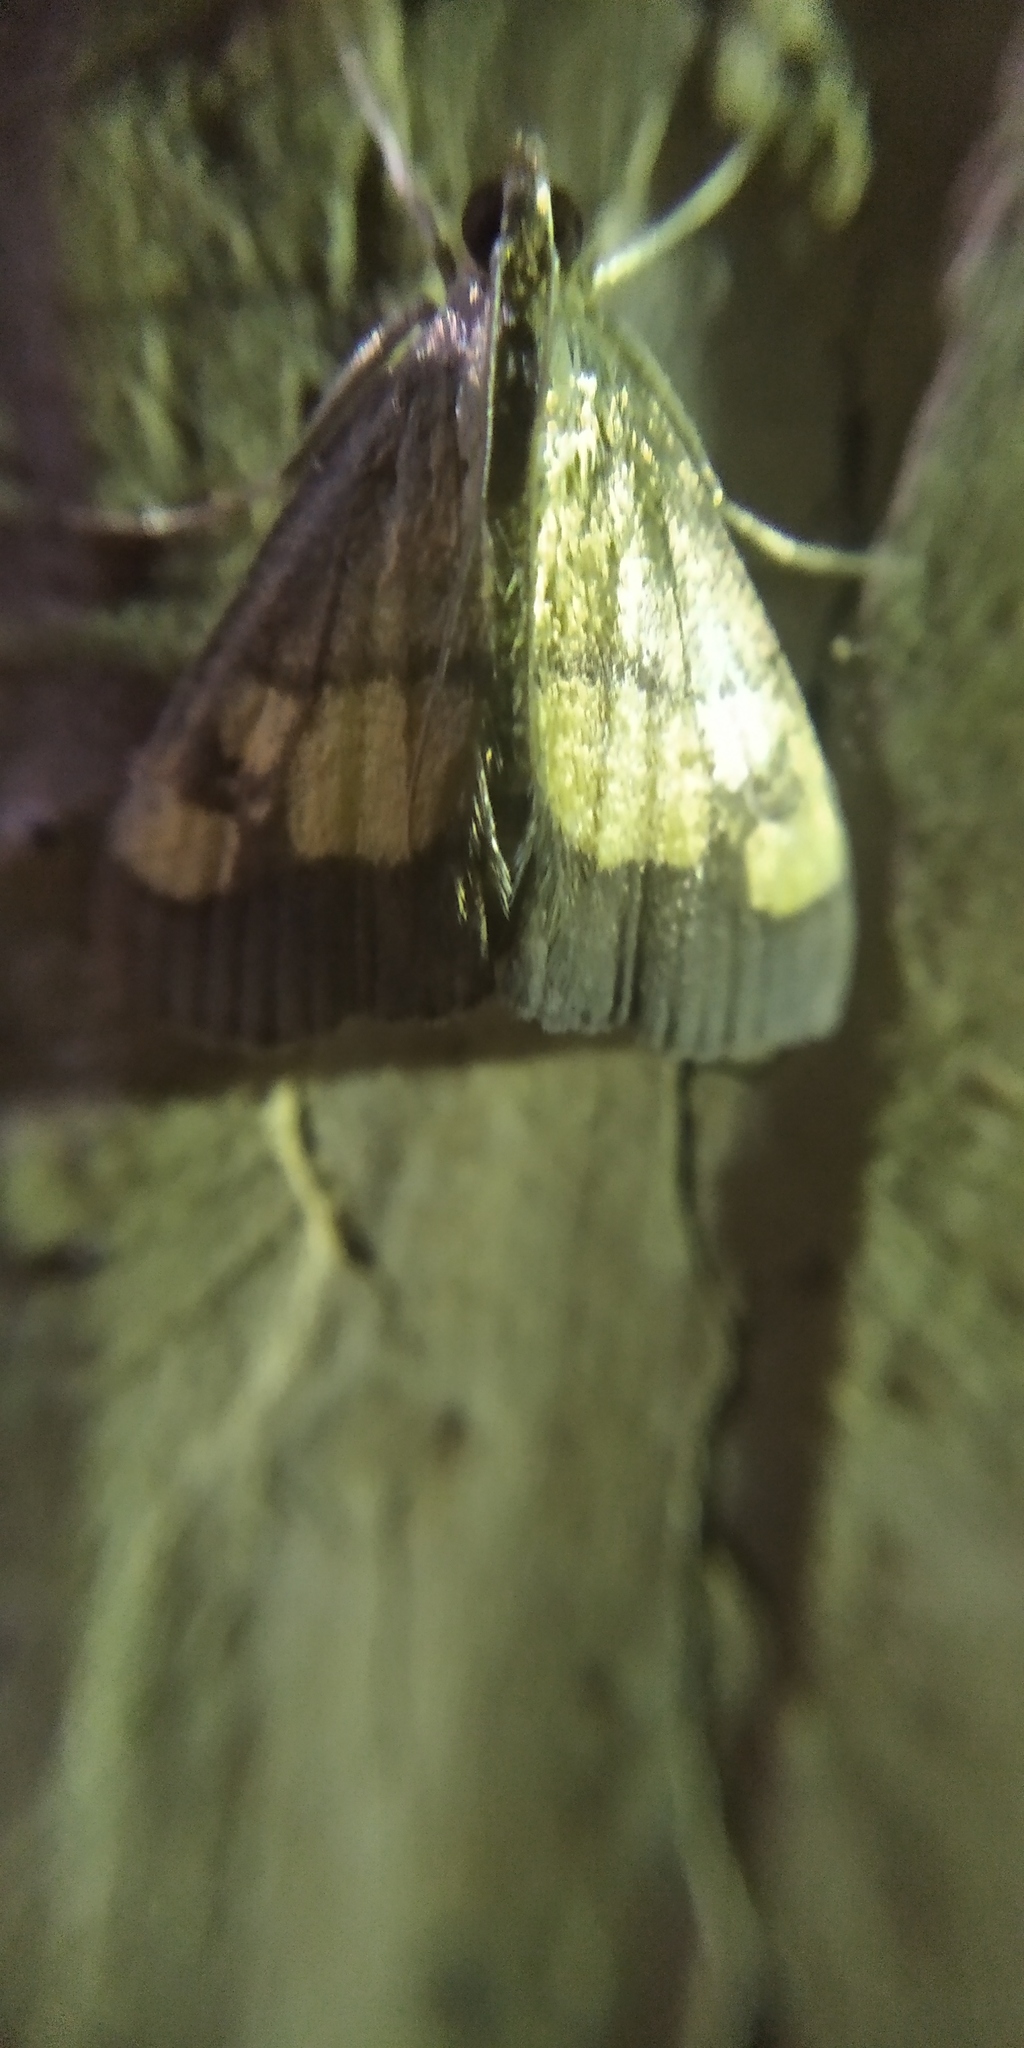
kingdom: Animalia
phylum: Arthropoda
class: Insecta
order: Lepidoptera
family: Crambidae
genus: Evergestis
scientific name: Evergestis limbata
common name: Dark bordered pearl
